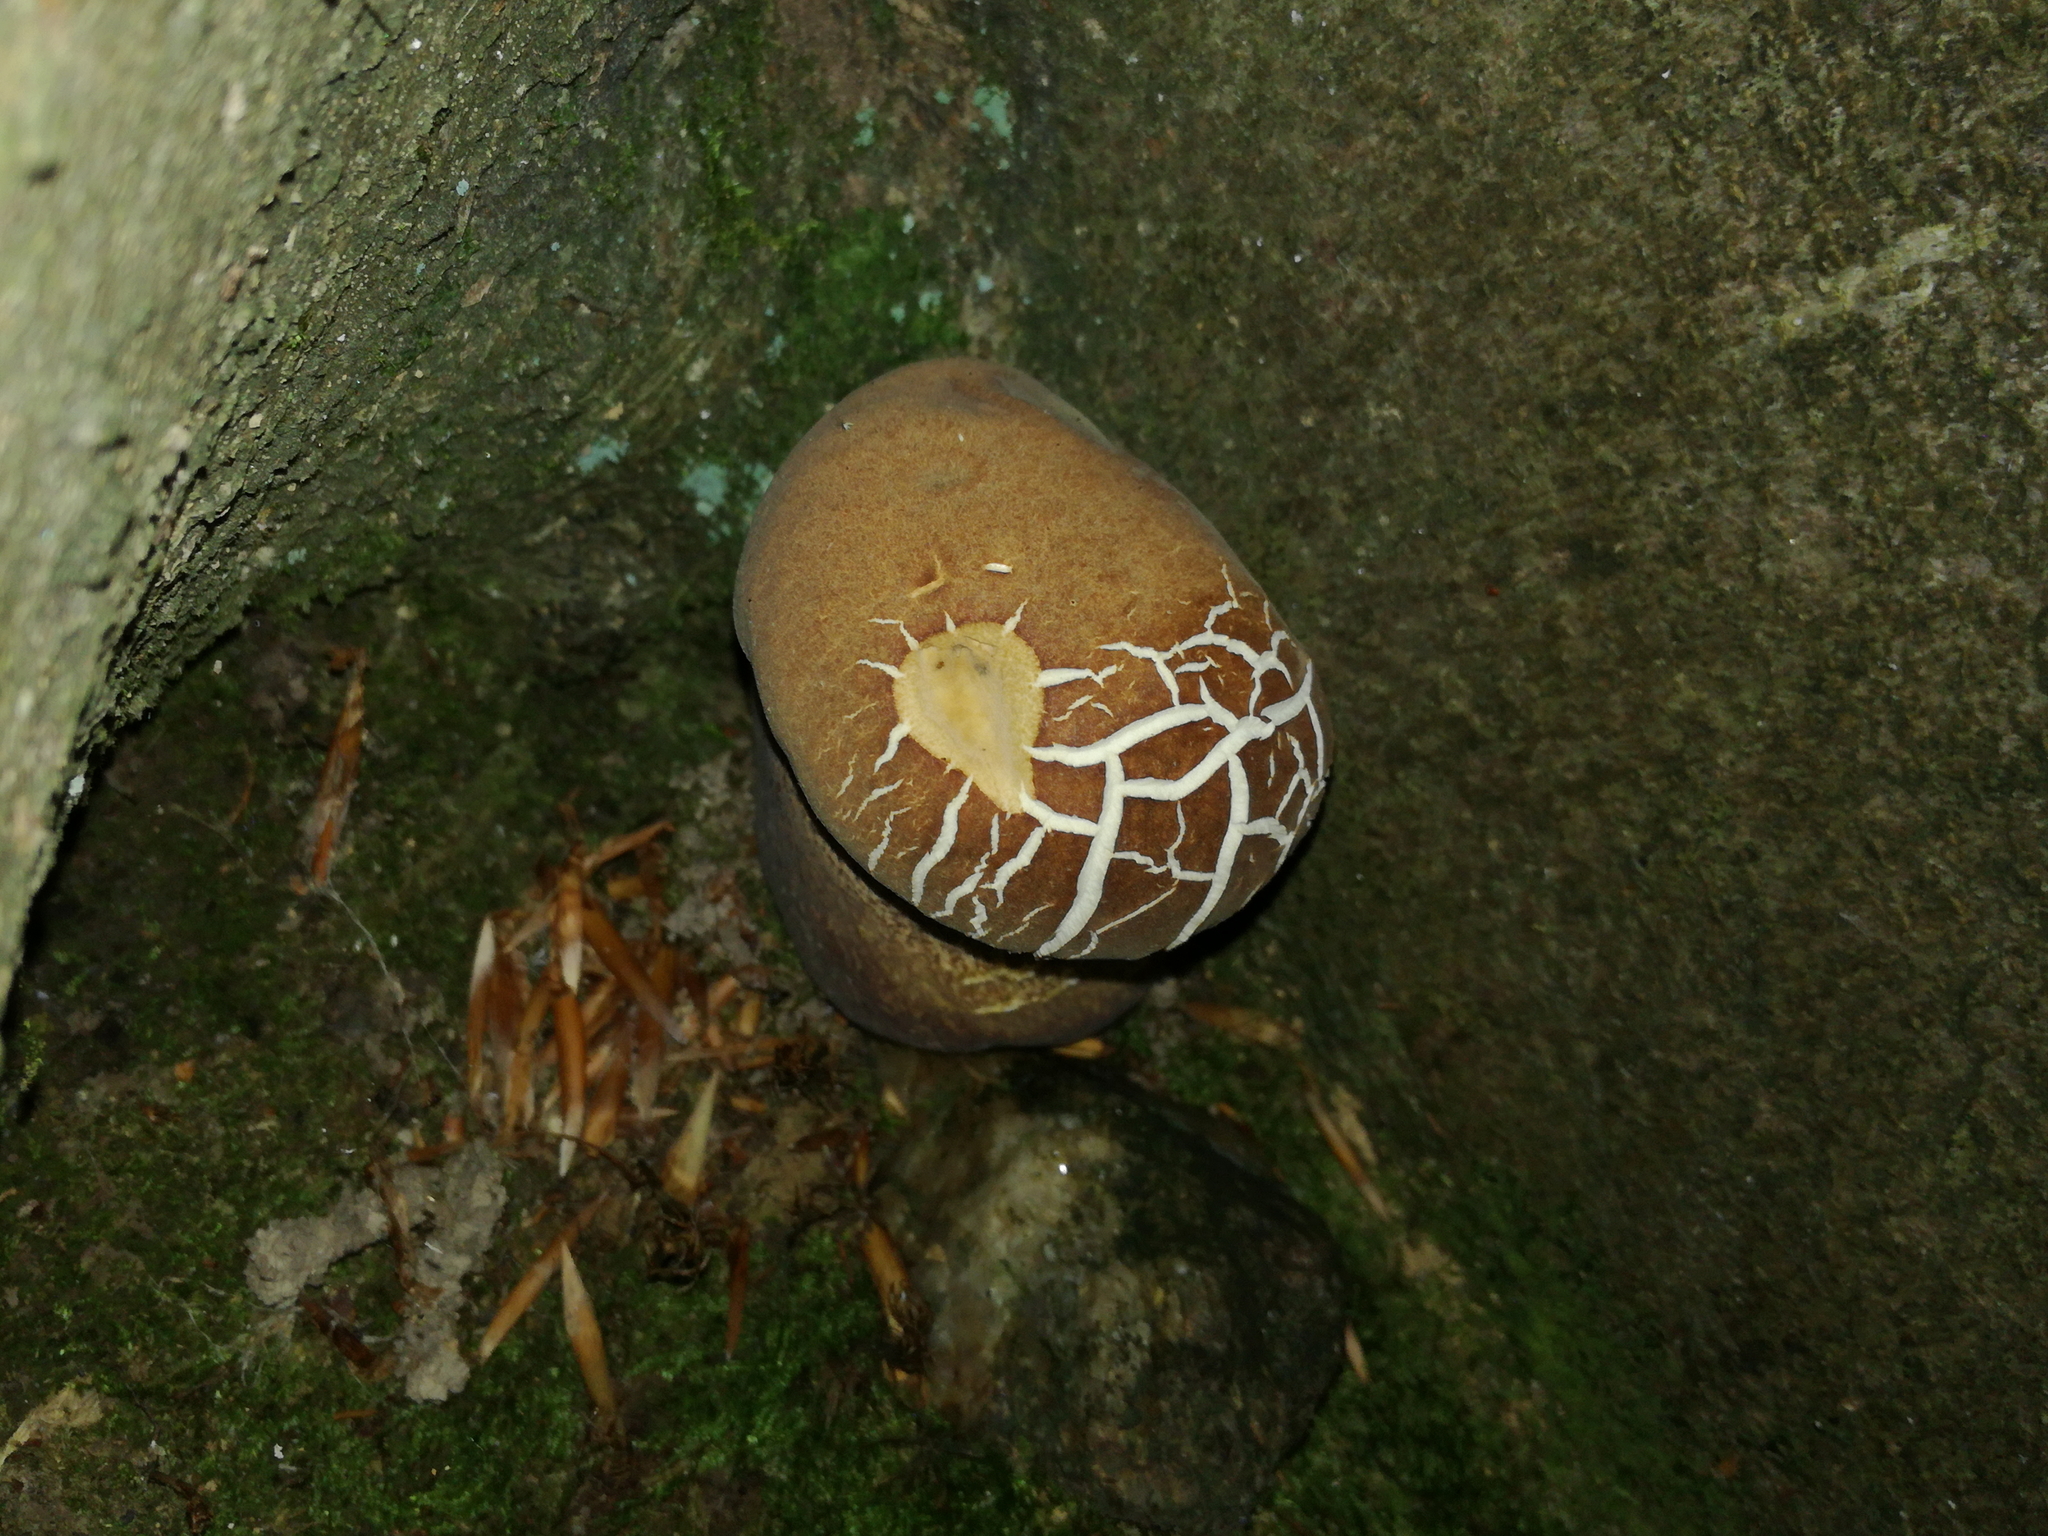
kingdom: Fungi
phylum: Basidiomycota
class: Agaricomycetes
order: Boletales
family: Boletaceae
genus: Boletus
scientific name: Boletus reticulatus
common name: Summer bolete
